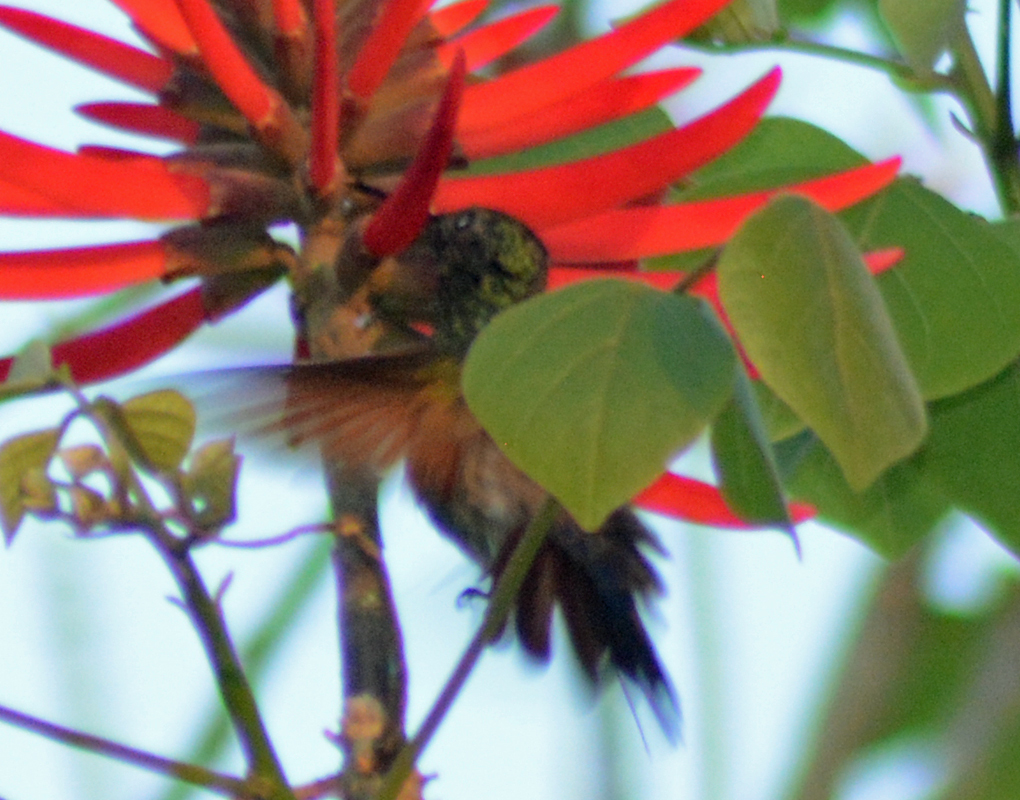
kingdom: Animalia
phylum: Chordata
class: Aves
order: Apodiformes
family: Trochilidae
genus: Saucerottia
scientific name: Saucerottia beryllina
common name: Berylline hummingbird
